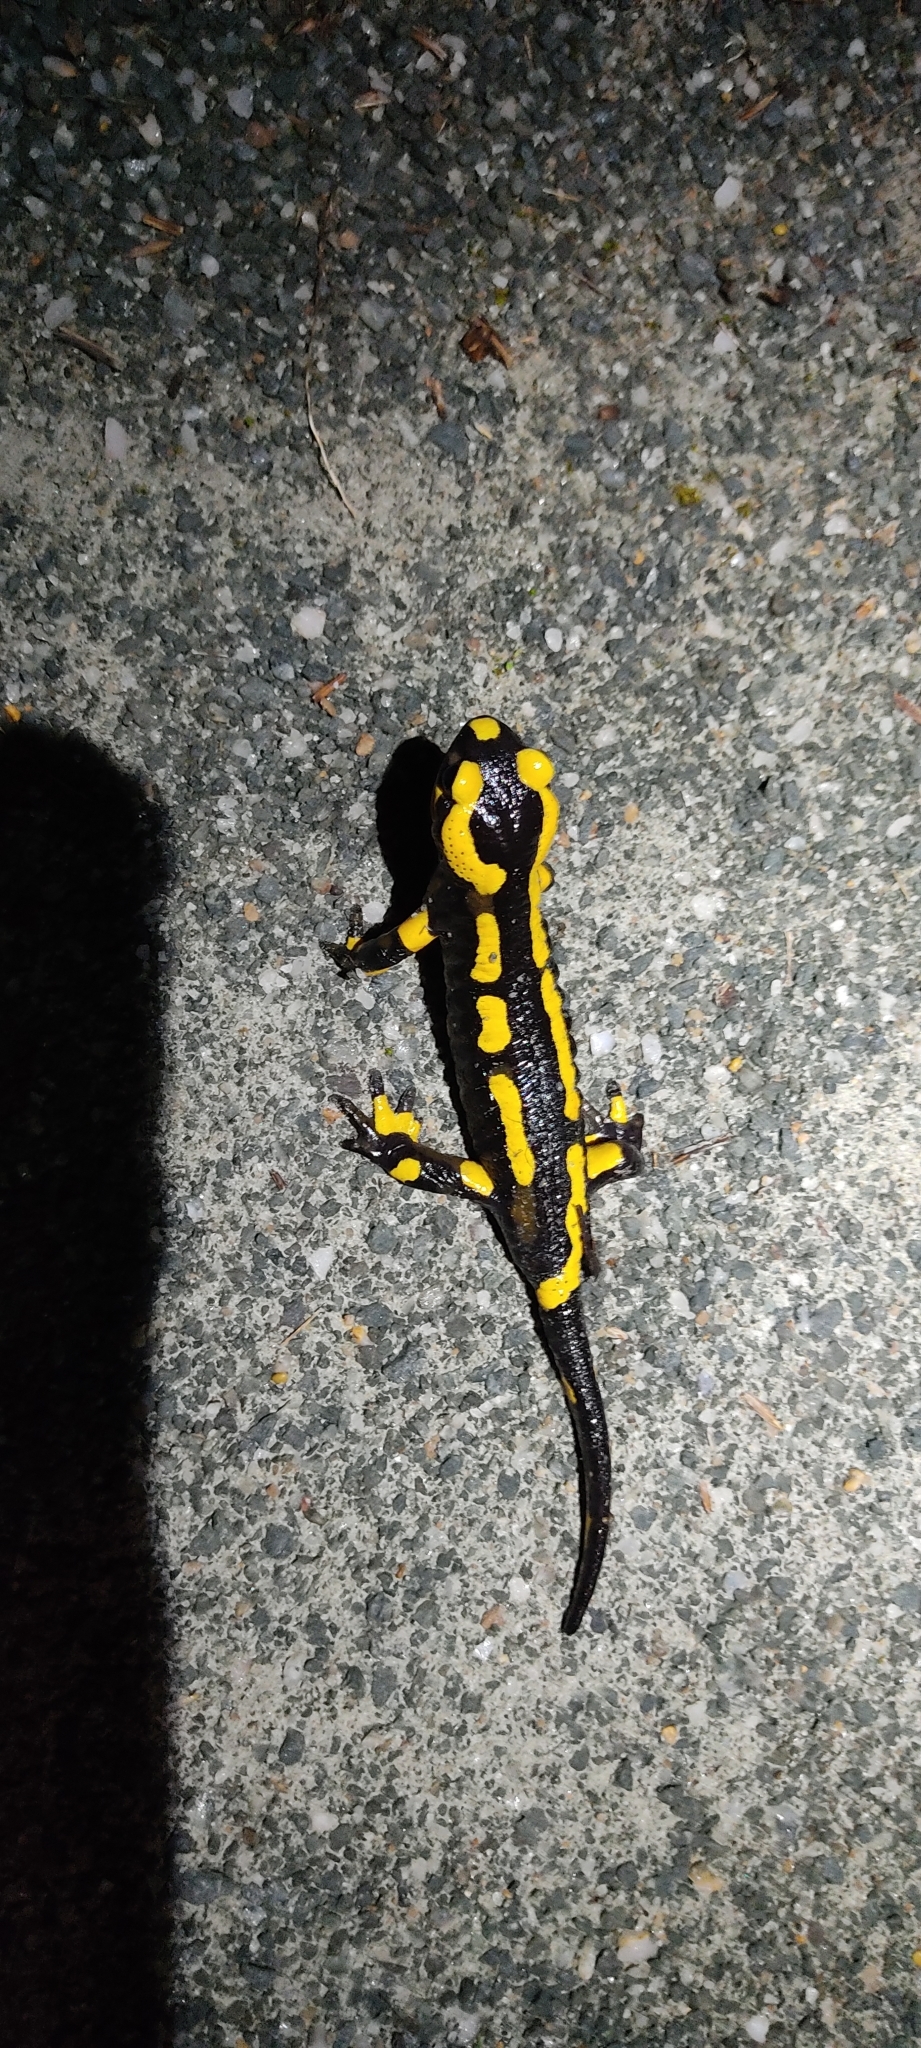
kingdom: Animalia
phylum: Chordata
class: Amphibia
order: Caudata
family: Salamandridae
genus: Salamandra
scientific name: Salamandra salamandra
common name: Fire salamander
